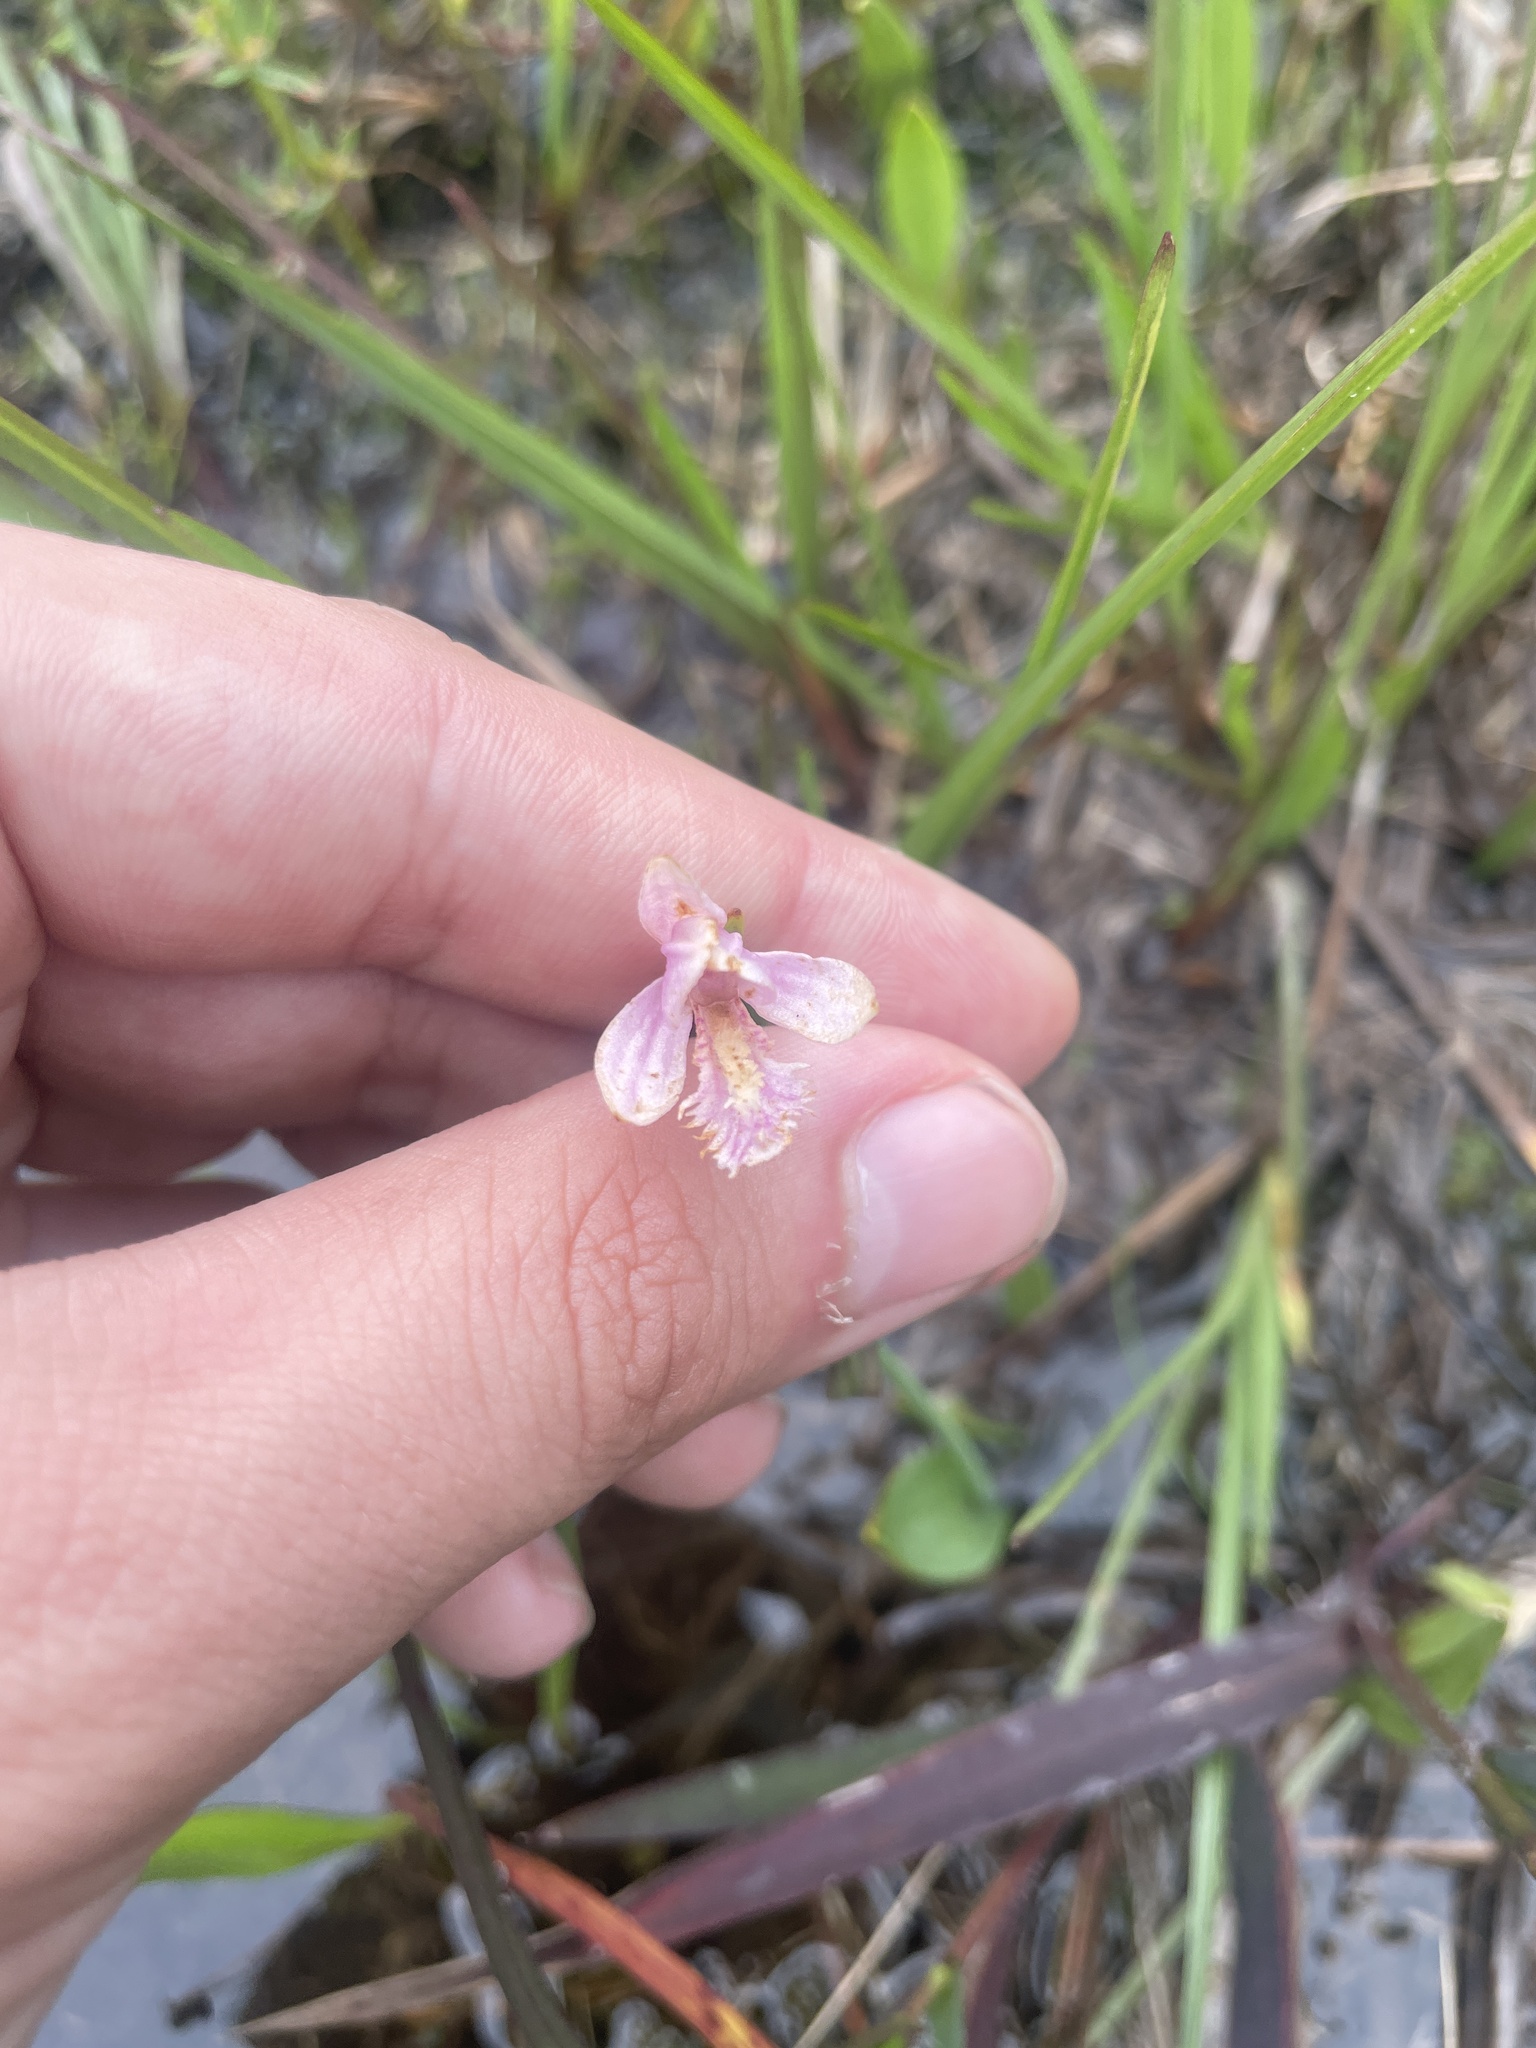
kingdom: Plantae
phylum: Tracheophyta
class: Liliopsida
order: Asparagales
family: Orchidaceae
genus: Pogonia
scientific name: Pogonia ophioglossoides
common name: Rose pogonia
